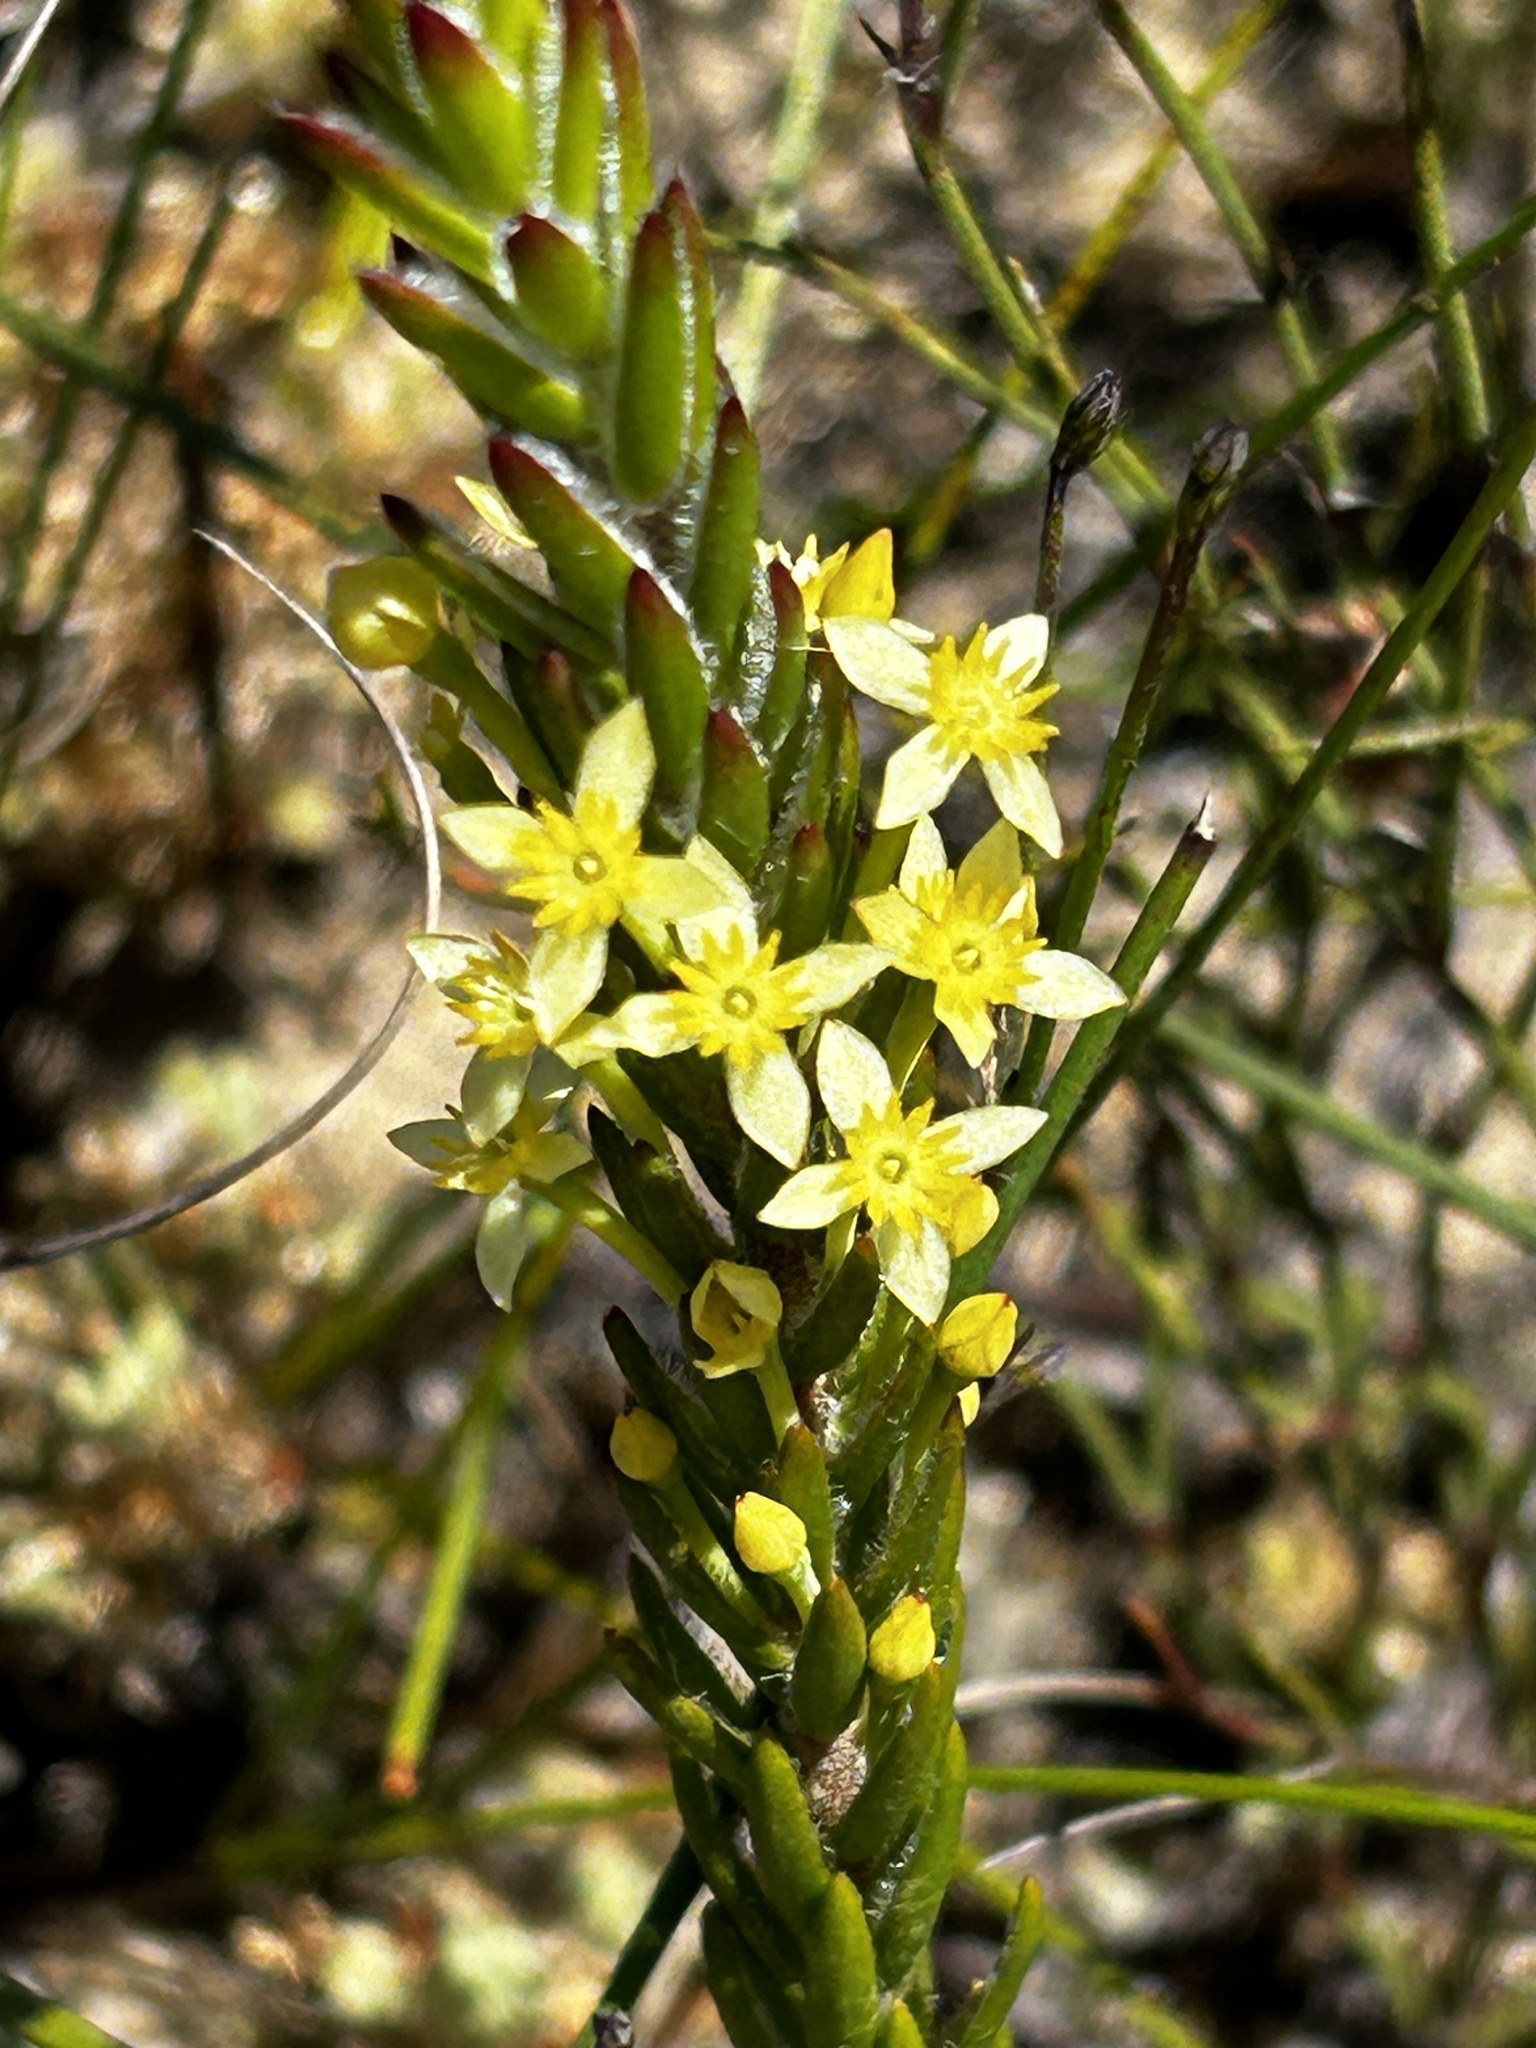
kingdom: Plantae
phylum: Tracheophyta
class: Magnoliopsida
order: Malvales
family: Thymelaeaceae
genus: Struthiola
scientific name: Struthiola ciliata
